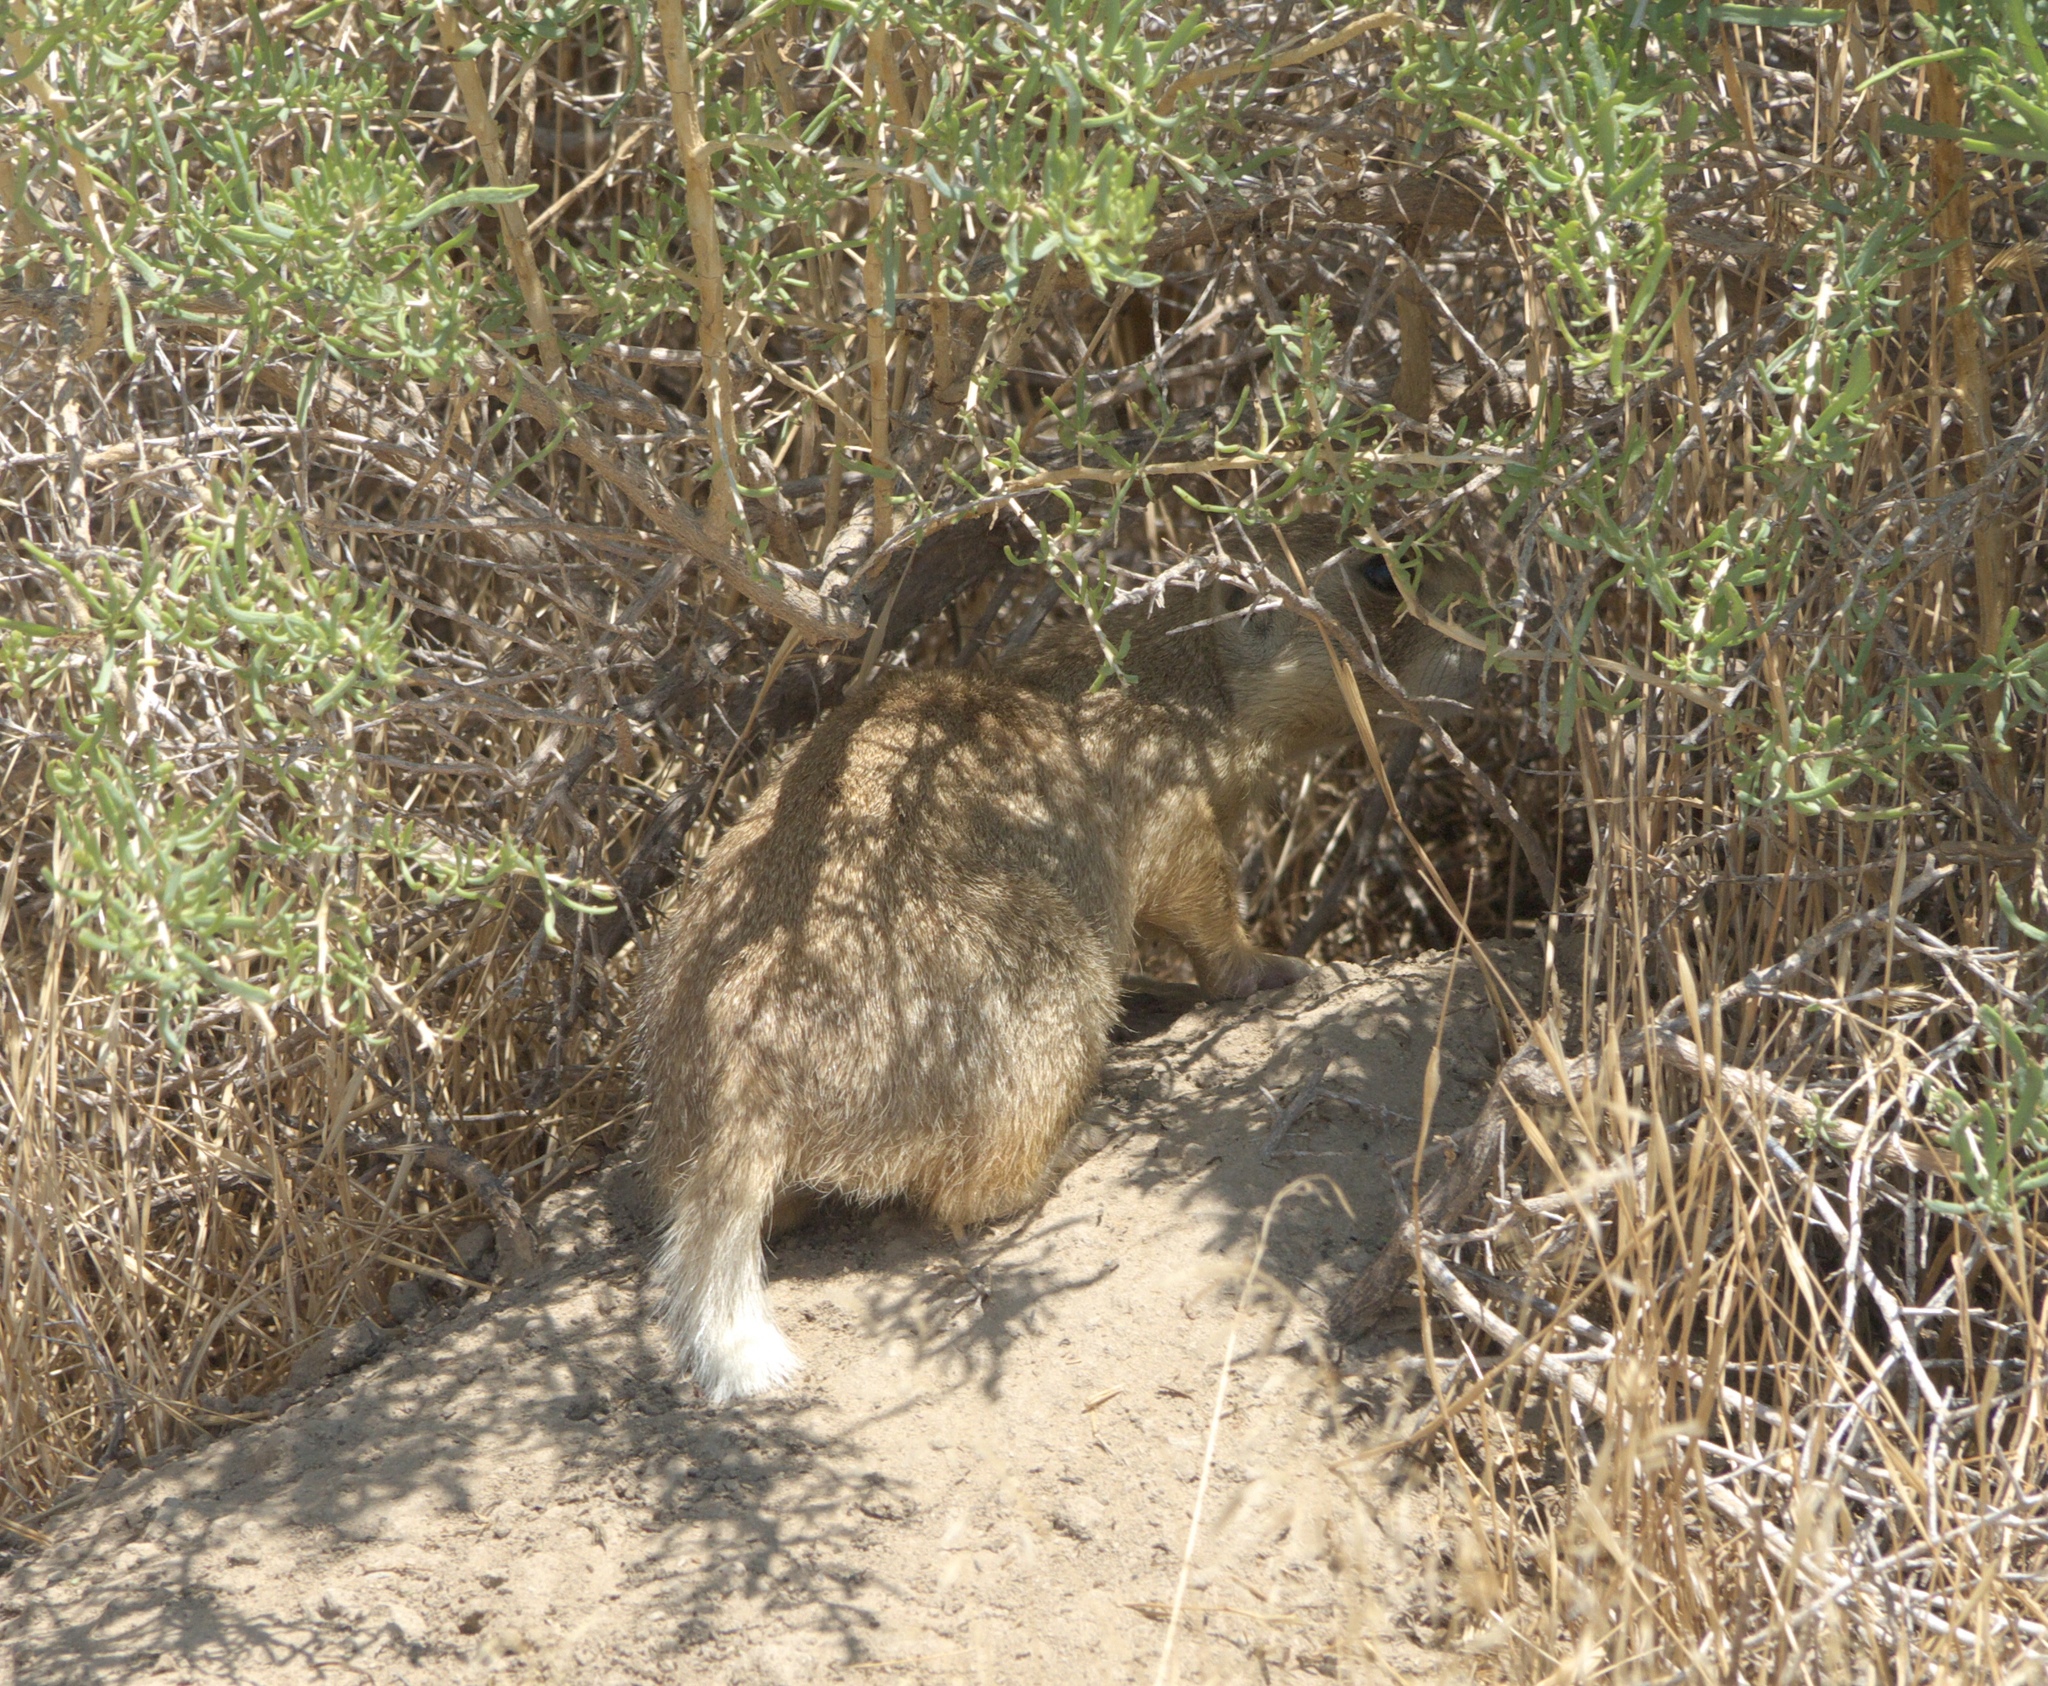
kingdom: Animalia
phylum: Chordata
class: Mammalia
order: Rodentia
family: Sciuridae
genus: Cynomys
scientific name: Cynomys leucurus
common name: White-tailed prairie dog
